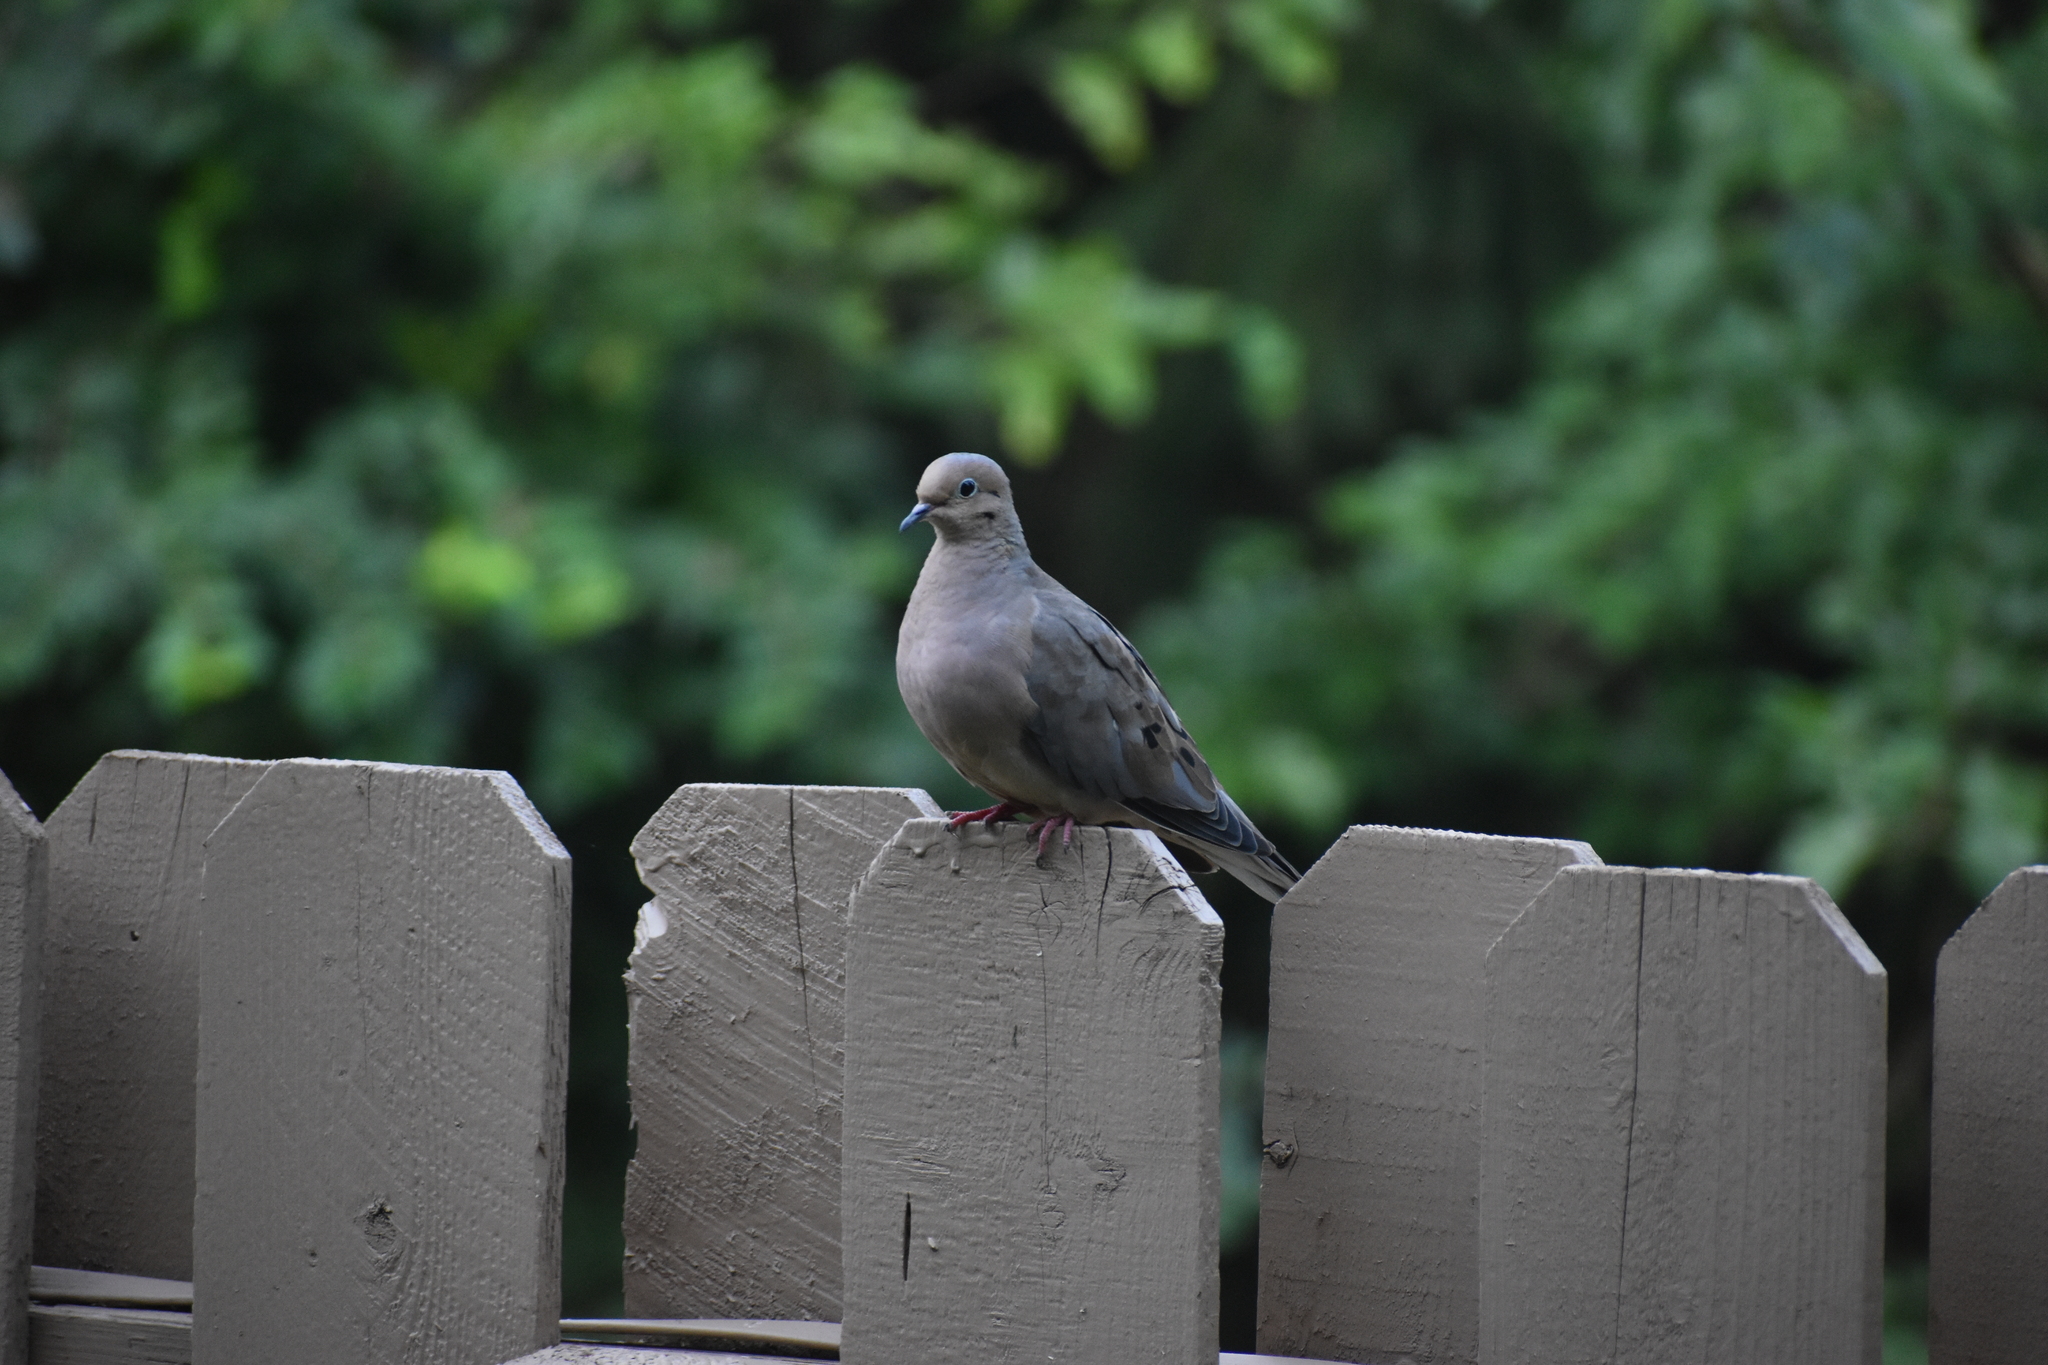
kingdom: Animalia
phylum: Chordata
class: Aves
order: Columbiformes
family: Columbidae
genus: Zenaida
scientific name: Zenaida macroura
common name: Mourning dove
